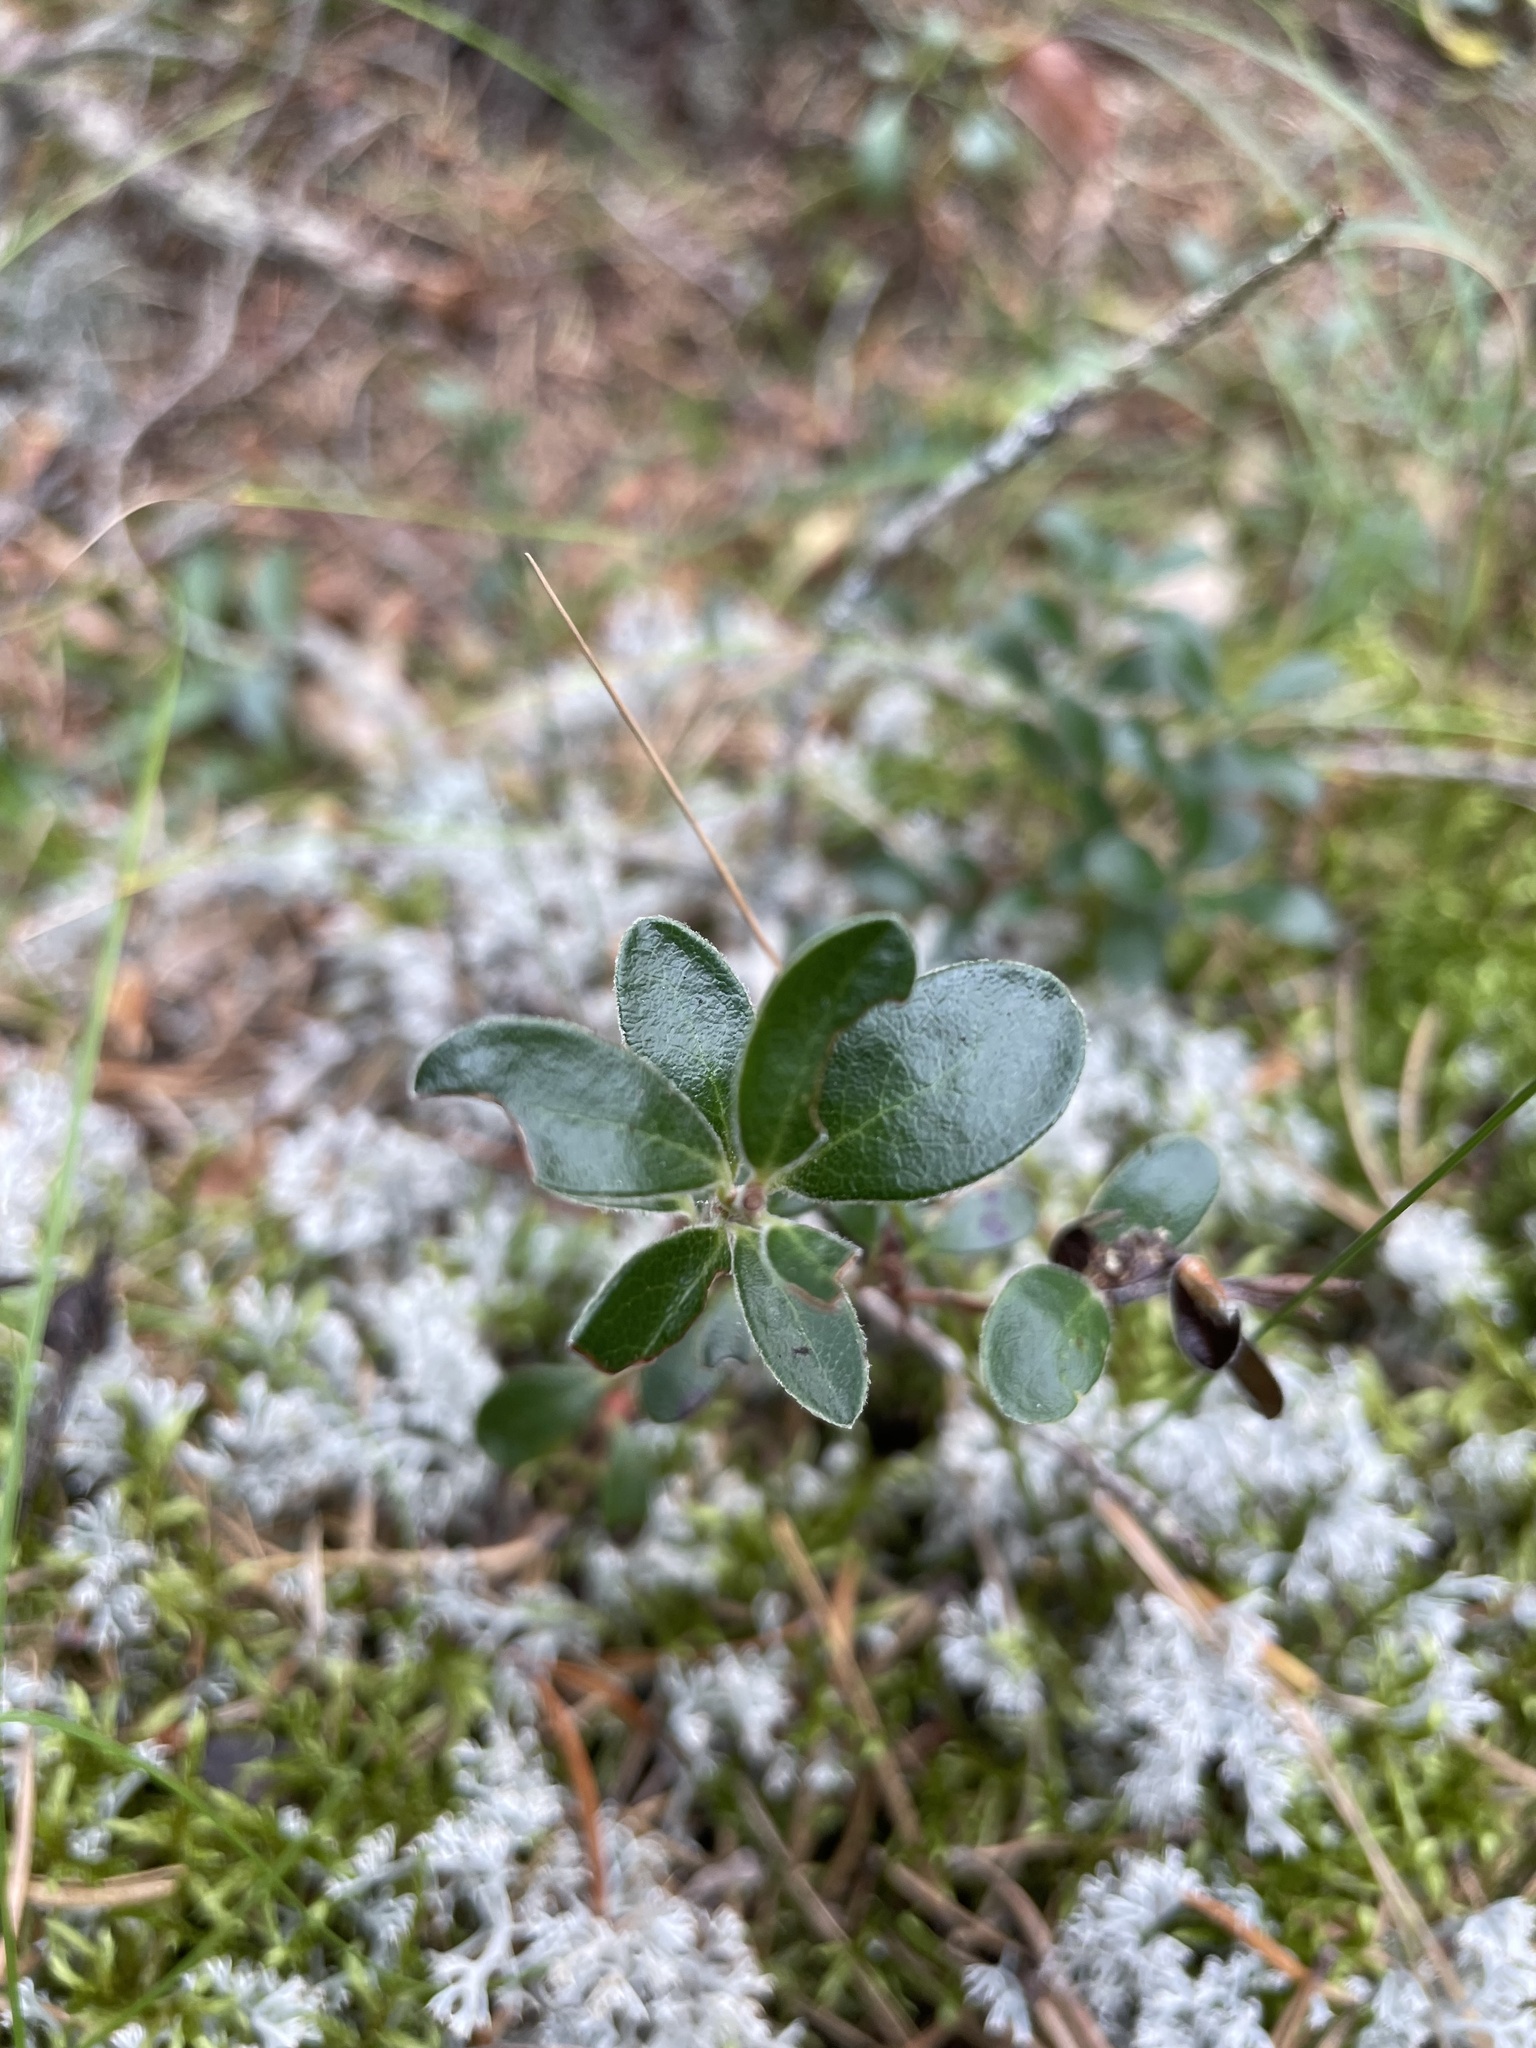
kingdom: Plantae
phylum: Tracheophyta
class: Magnoliopsida
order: Ericales
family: Ericaceae
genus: Arctostaphylos
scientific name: Arctostaphylos uva-ursi
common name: Bearberry
